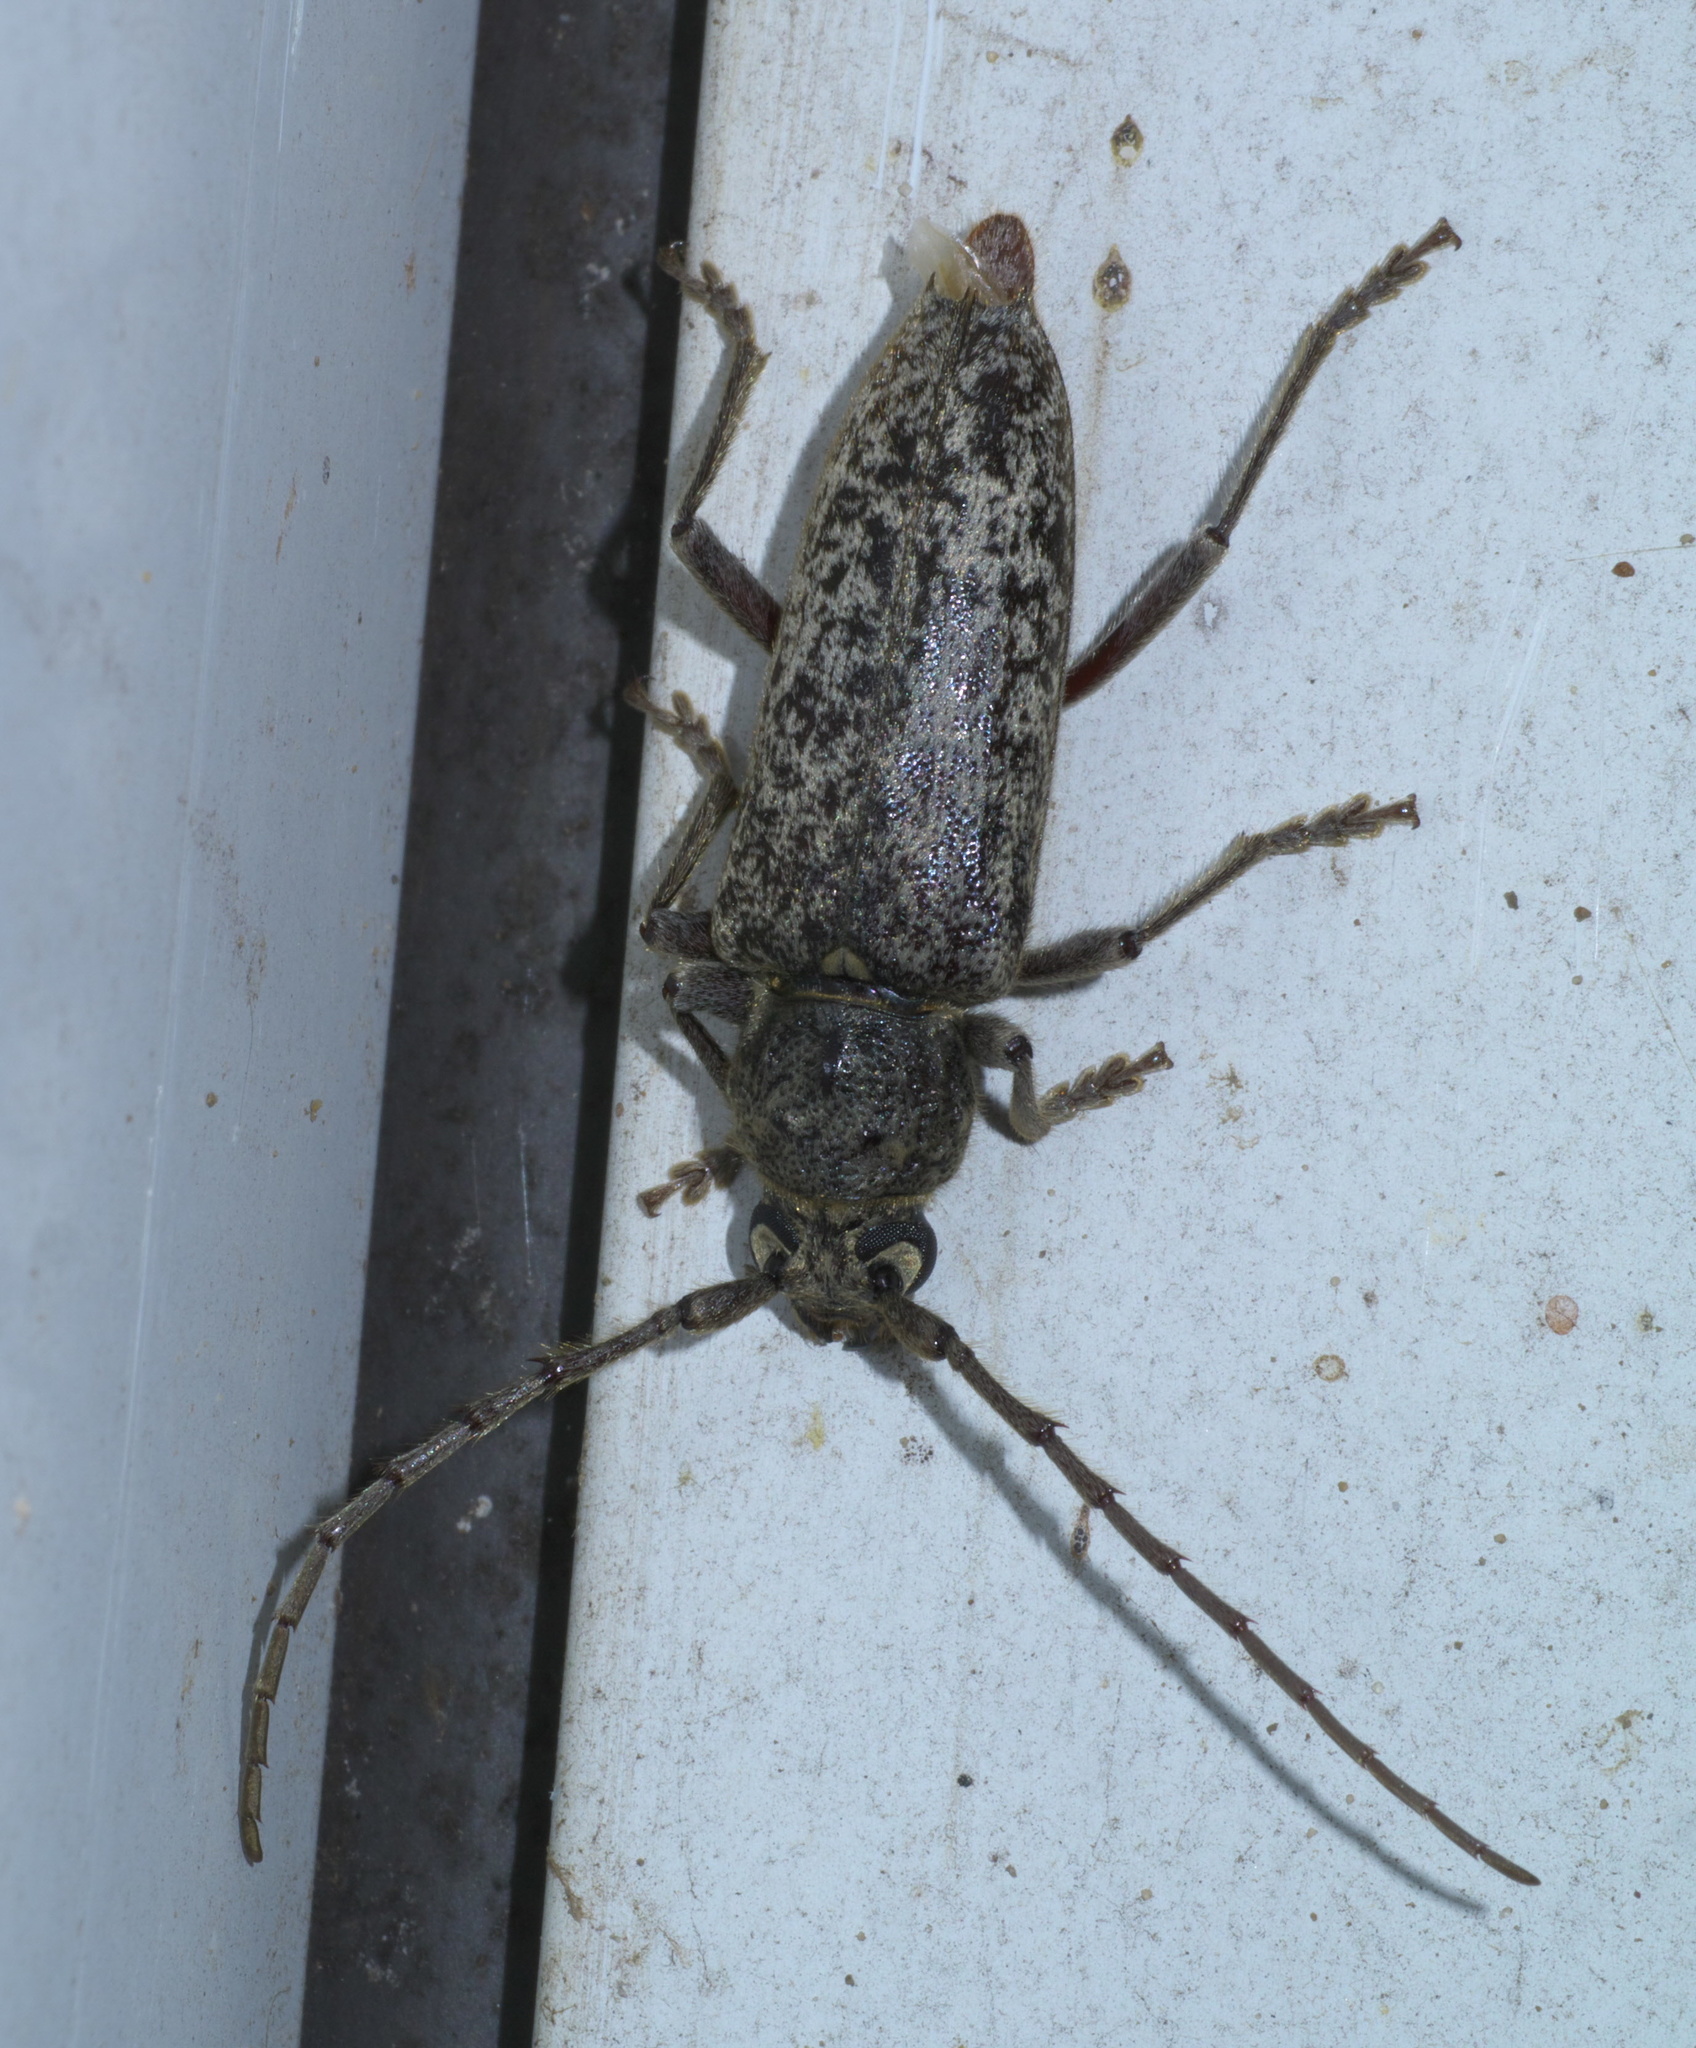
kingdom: Animalia
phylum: Arthropoda
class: Insecta
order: Coleoptera
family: Cerambycidae
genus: Enaphalodes
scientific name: Enaphalodes atomarius
